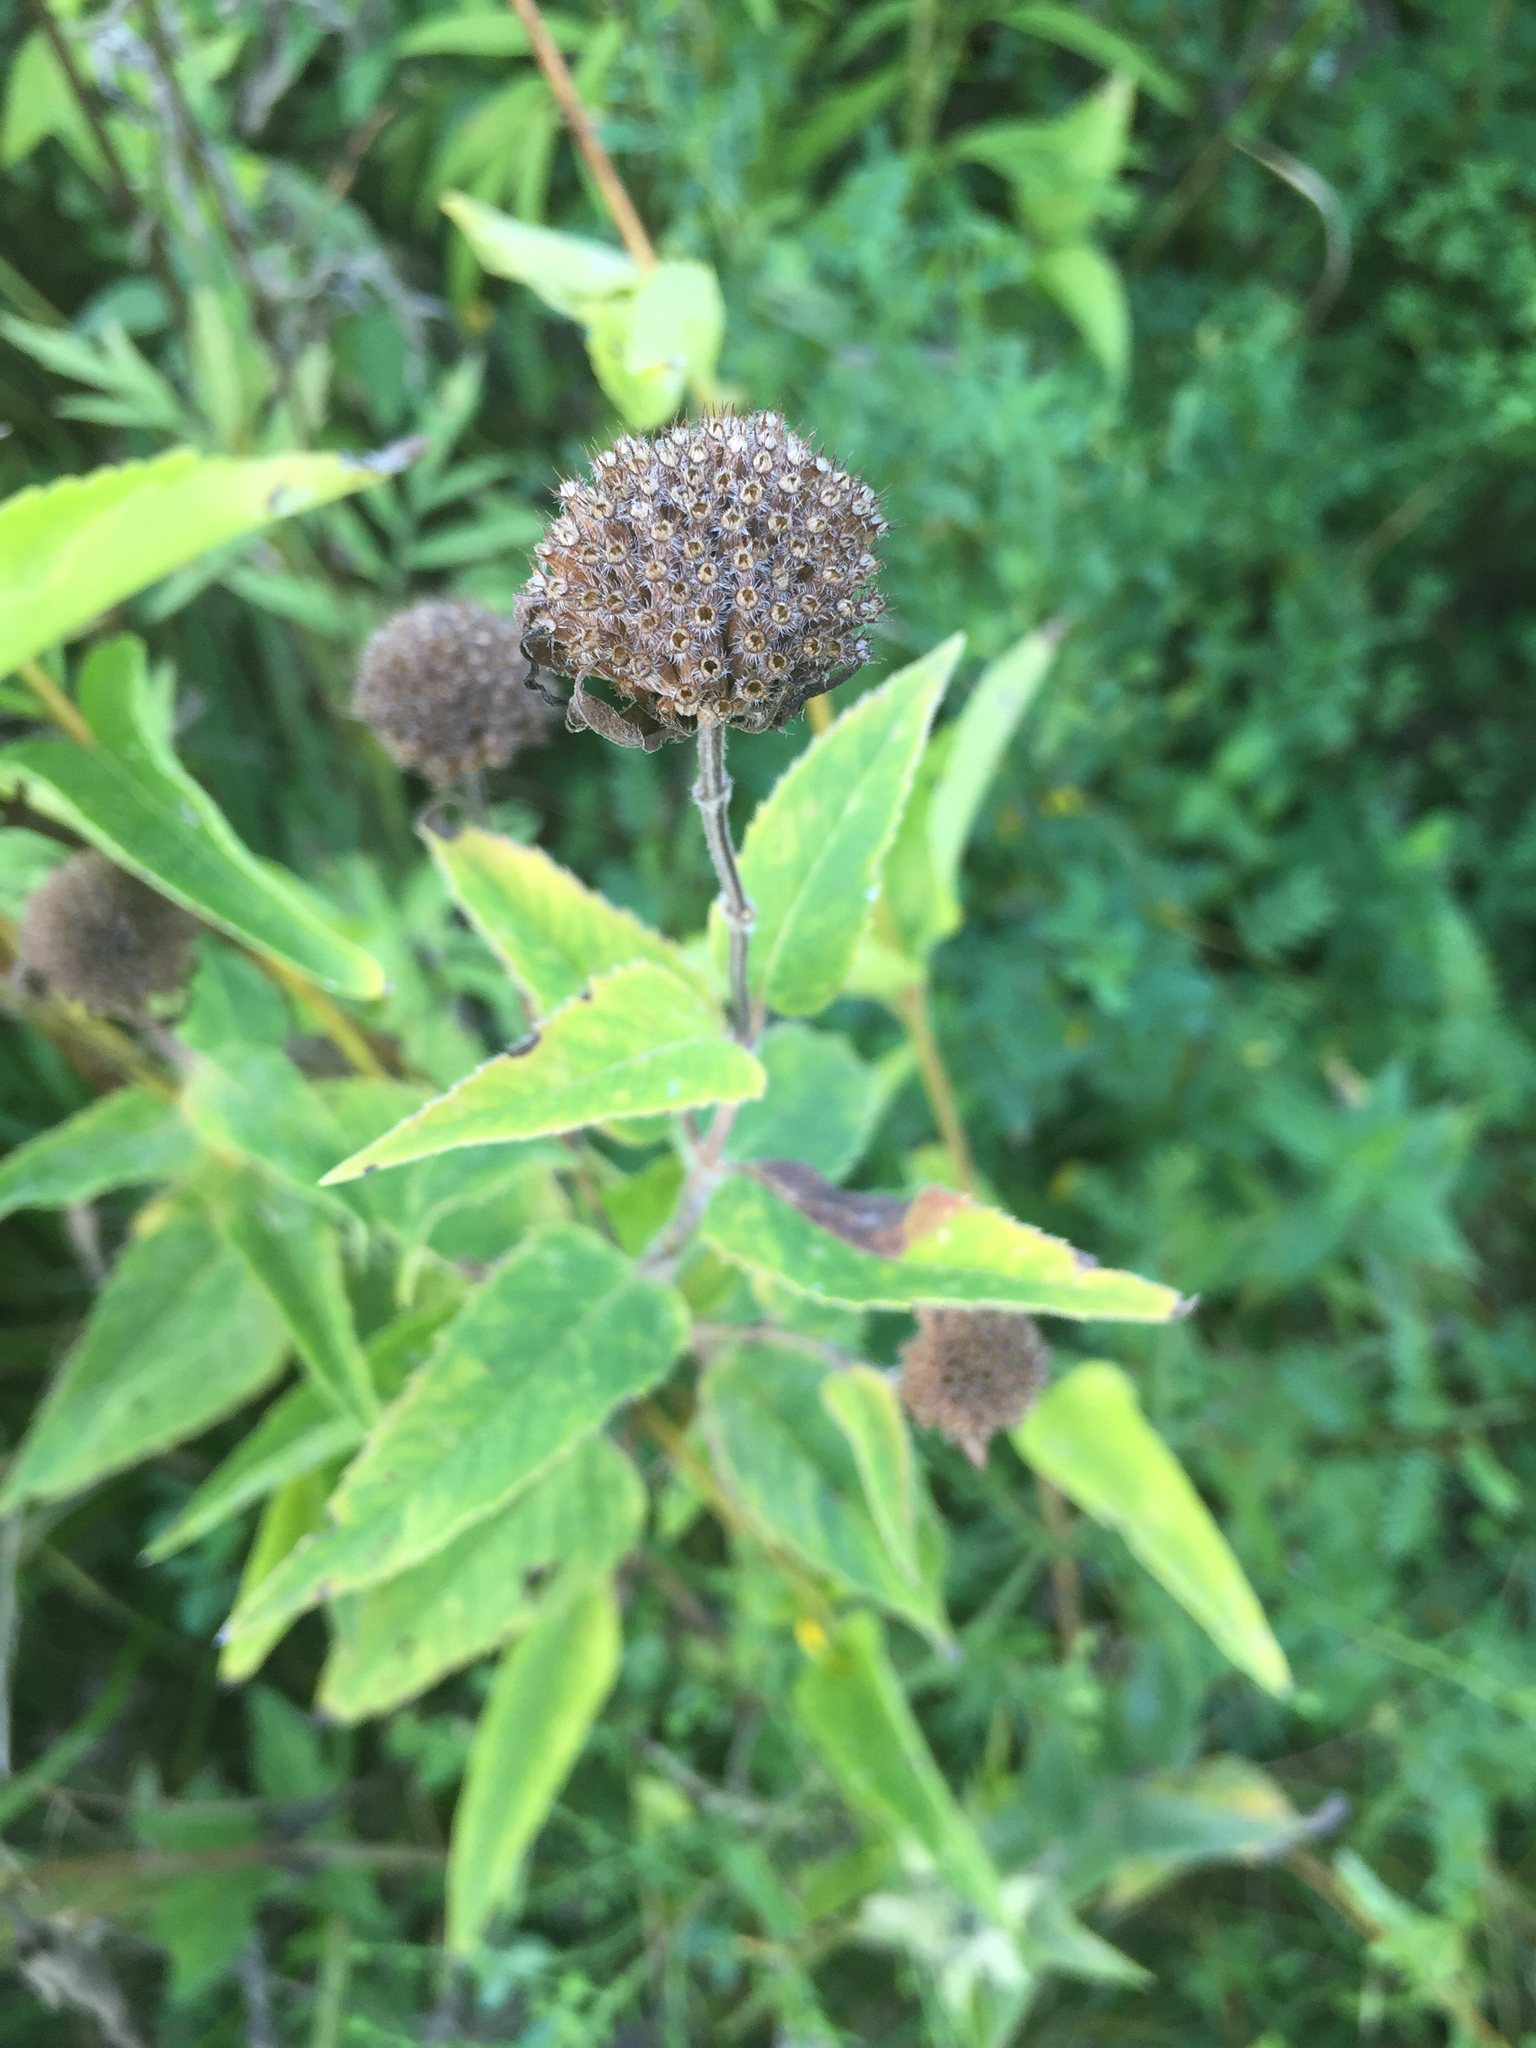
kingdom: Plantae
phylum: Tracheophyta
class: Magnoliopsida
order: Lamiales
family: Lamiaceae
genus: Monarda
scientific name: Monarda fistulosa
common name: Purple beebalm
